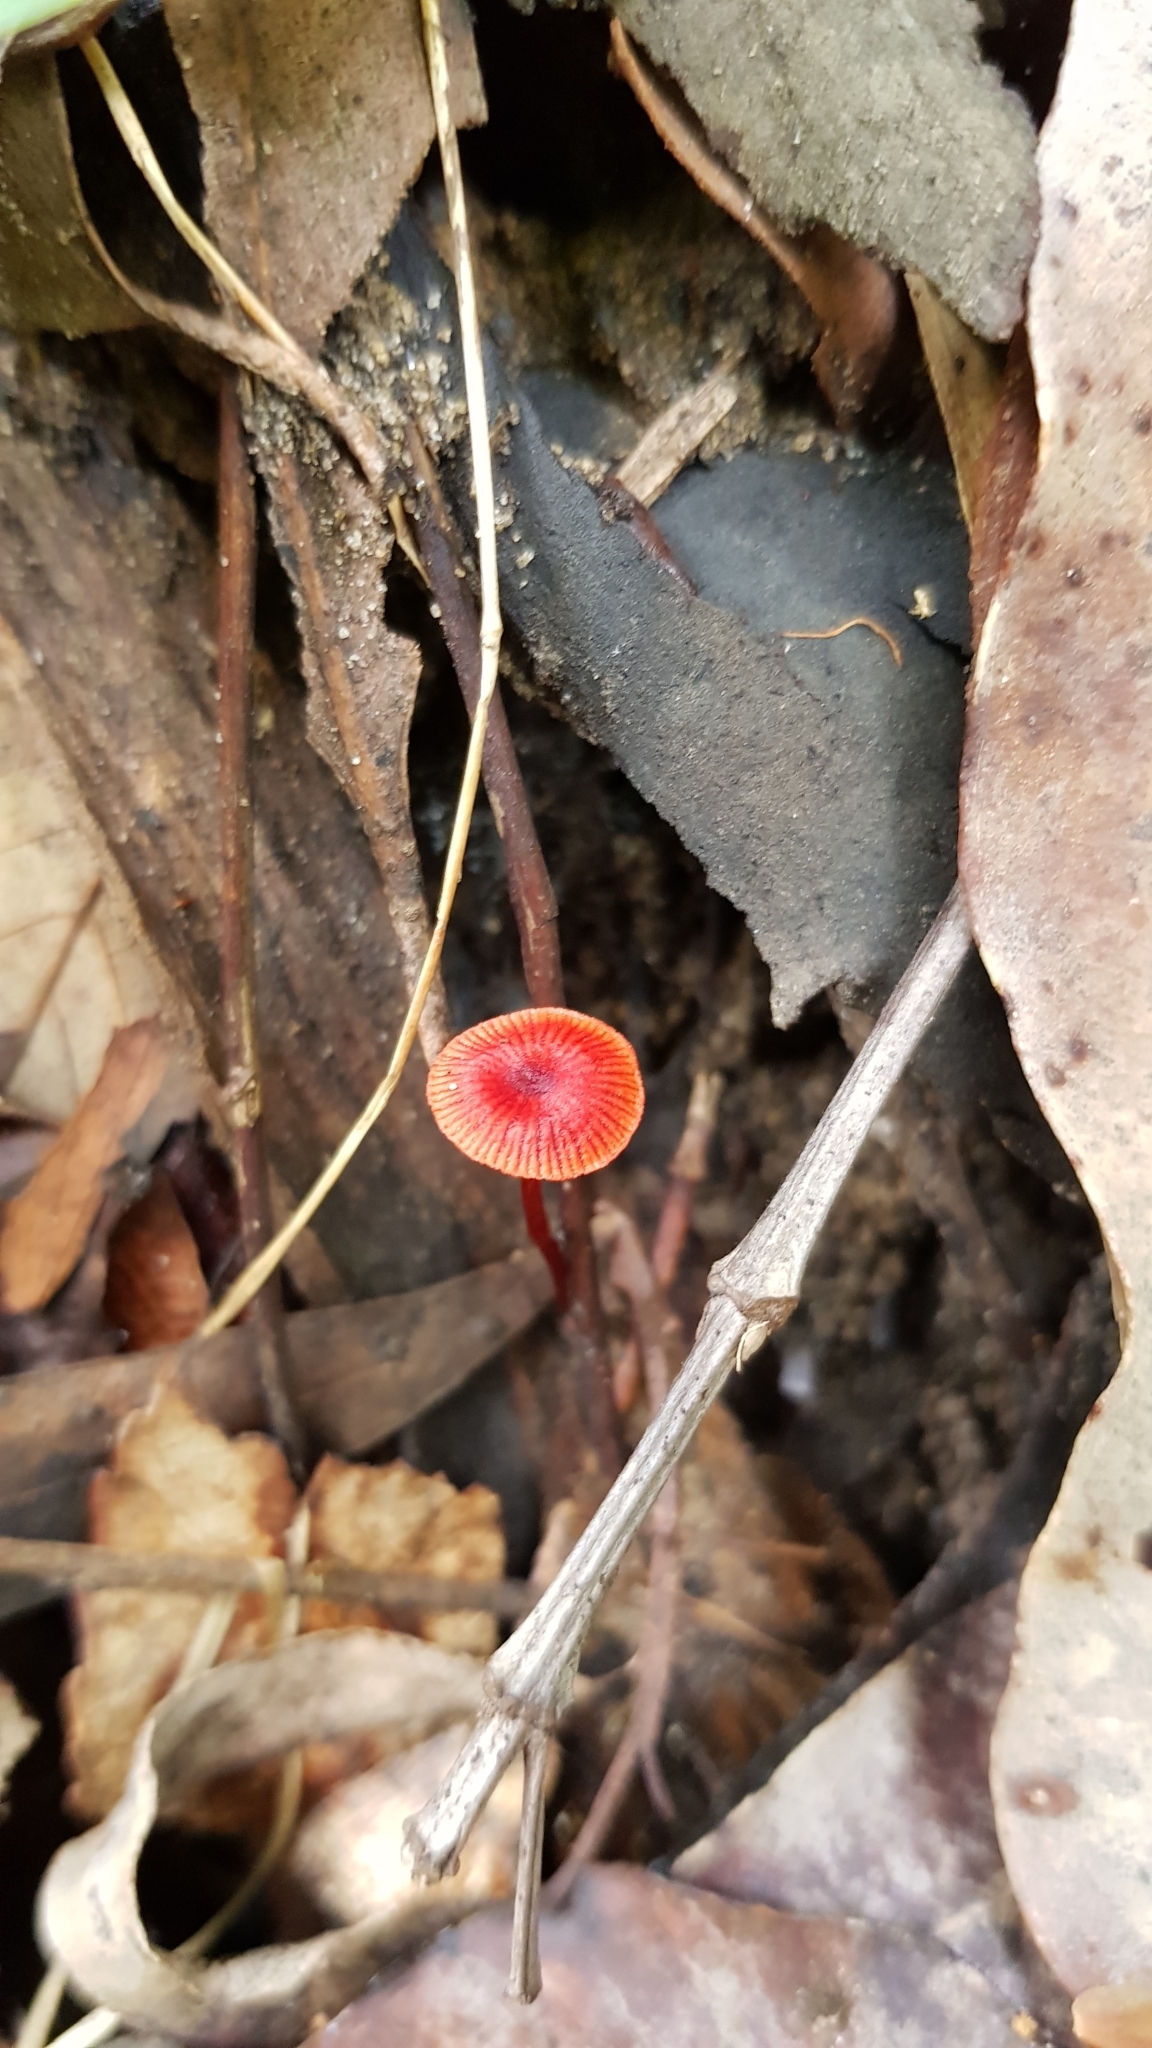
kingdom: Fungi
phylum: Basidiomycota
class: Agaricomycetes
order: Agaricales
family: Mycenaceae
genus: Cruentomycena
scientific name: Cruentomycena viscidocruenta
